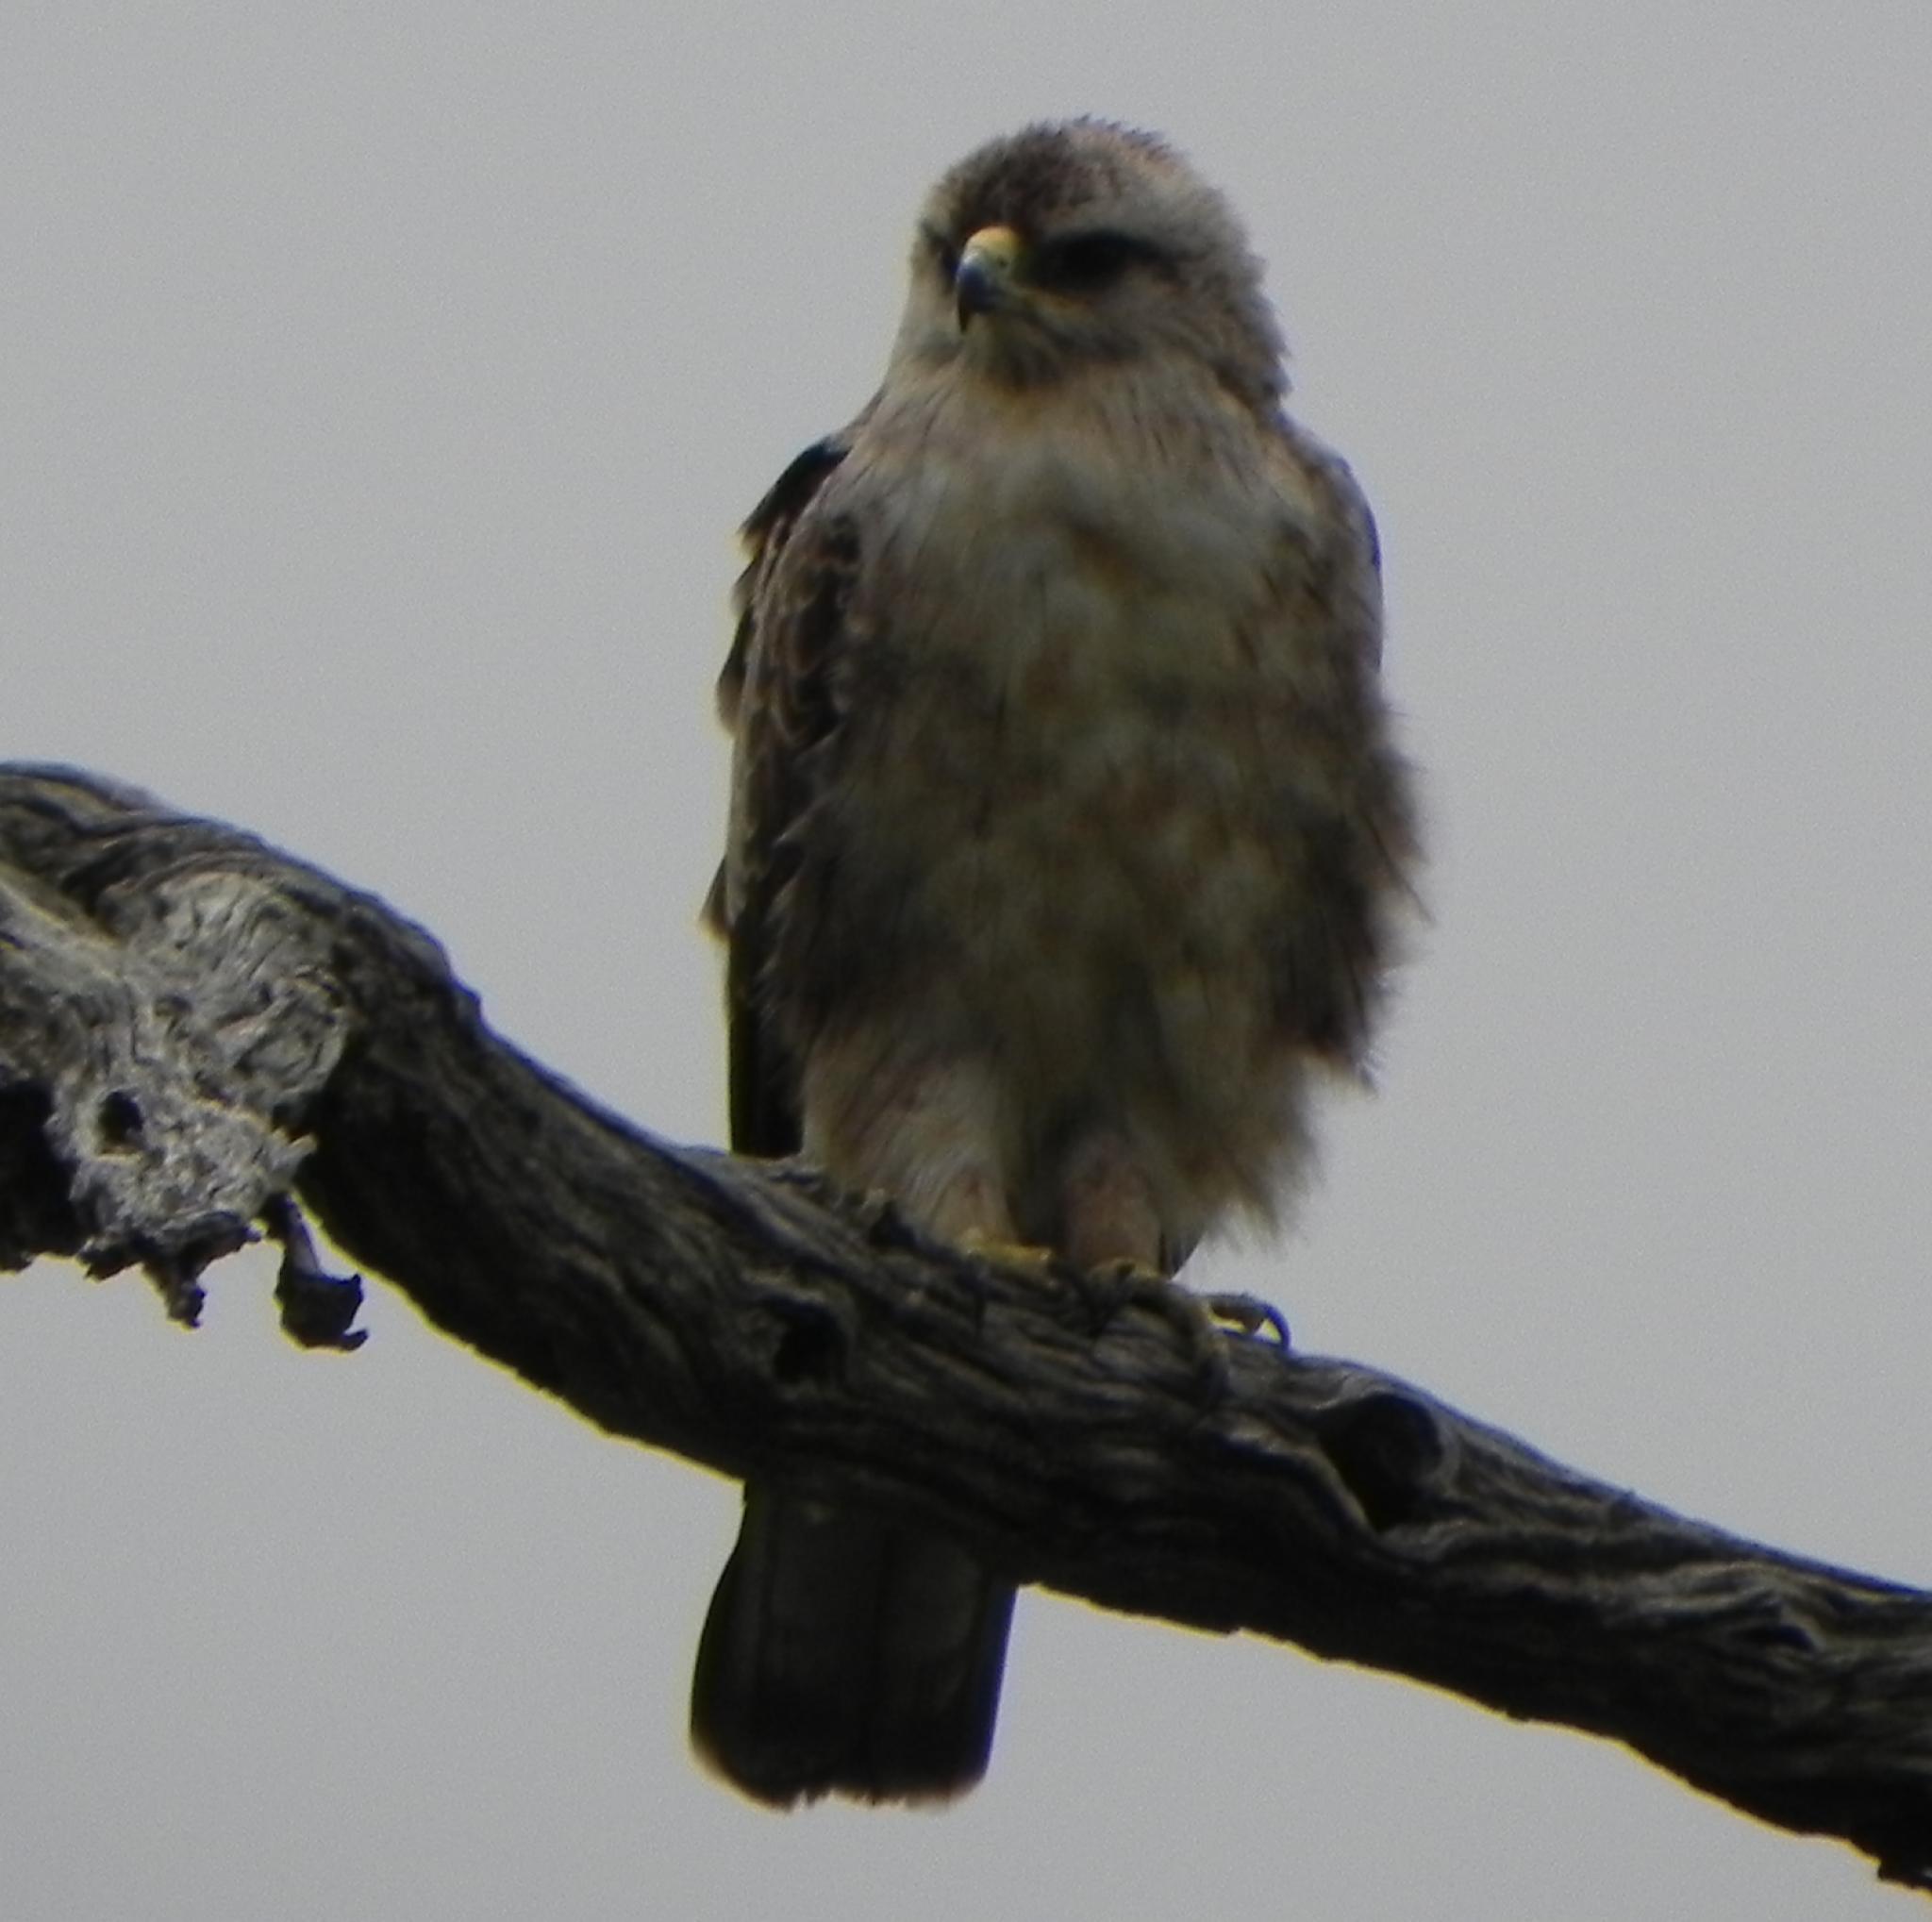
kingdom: Animalia
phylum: Chordata
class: Aves
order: Accipitriformes
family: Accipitridae
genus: Hieraaetus
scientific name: Hieraaetus wahlbergi
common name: Wahlberg's eagle
